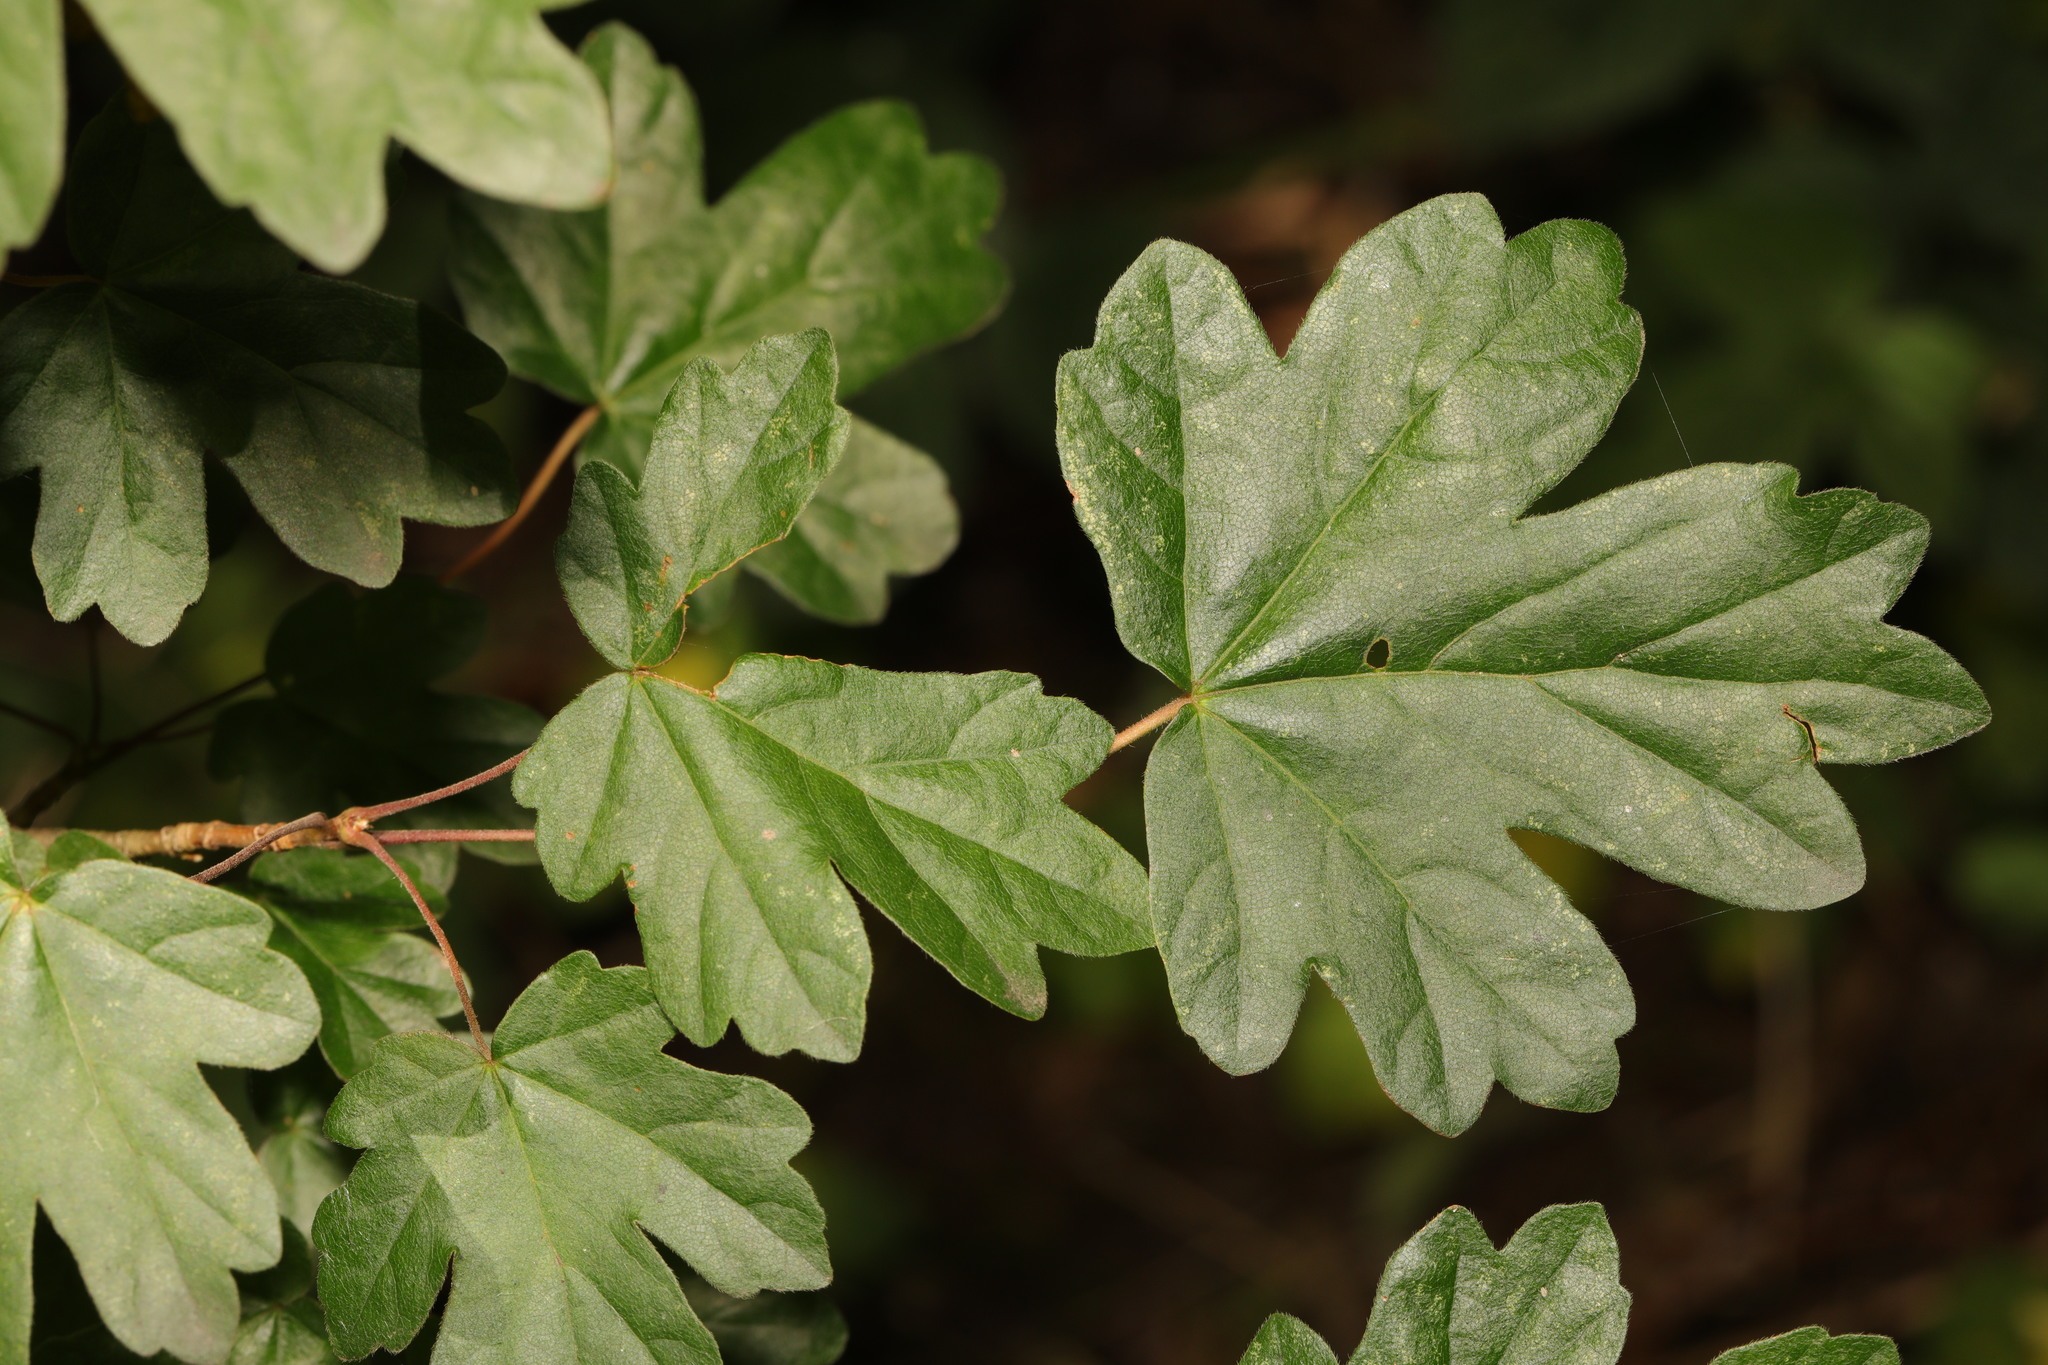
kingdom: Plantae
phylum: Tracheophyta
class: Magnoliopsida
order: Sapindales
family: Sapindaceae
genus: Acer
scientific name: Acer campestre
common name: Field maple
